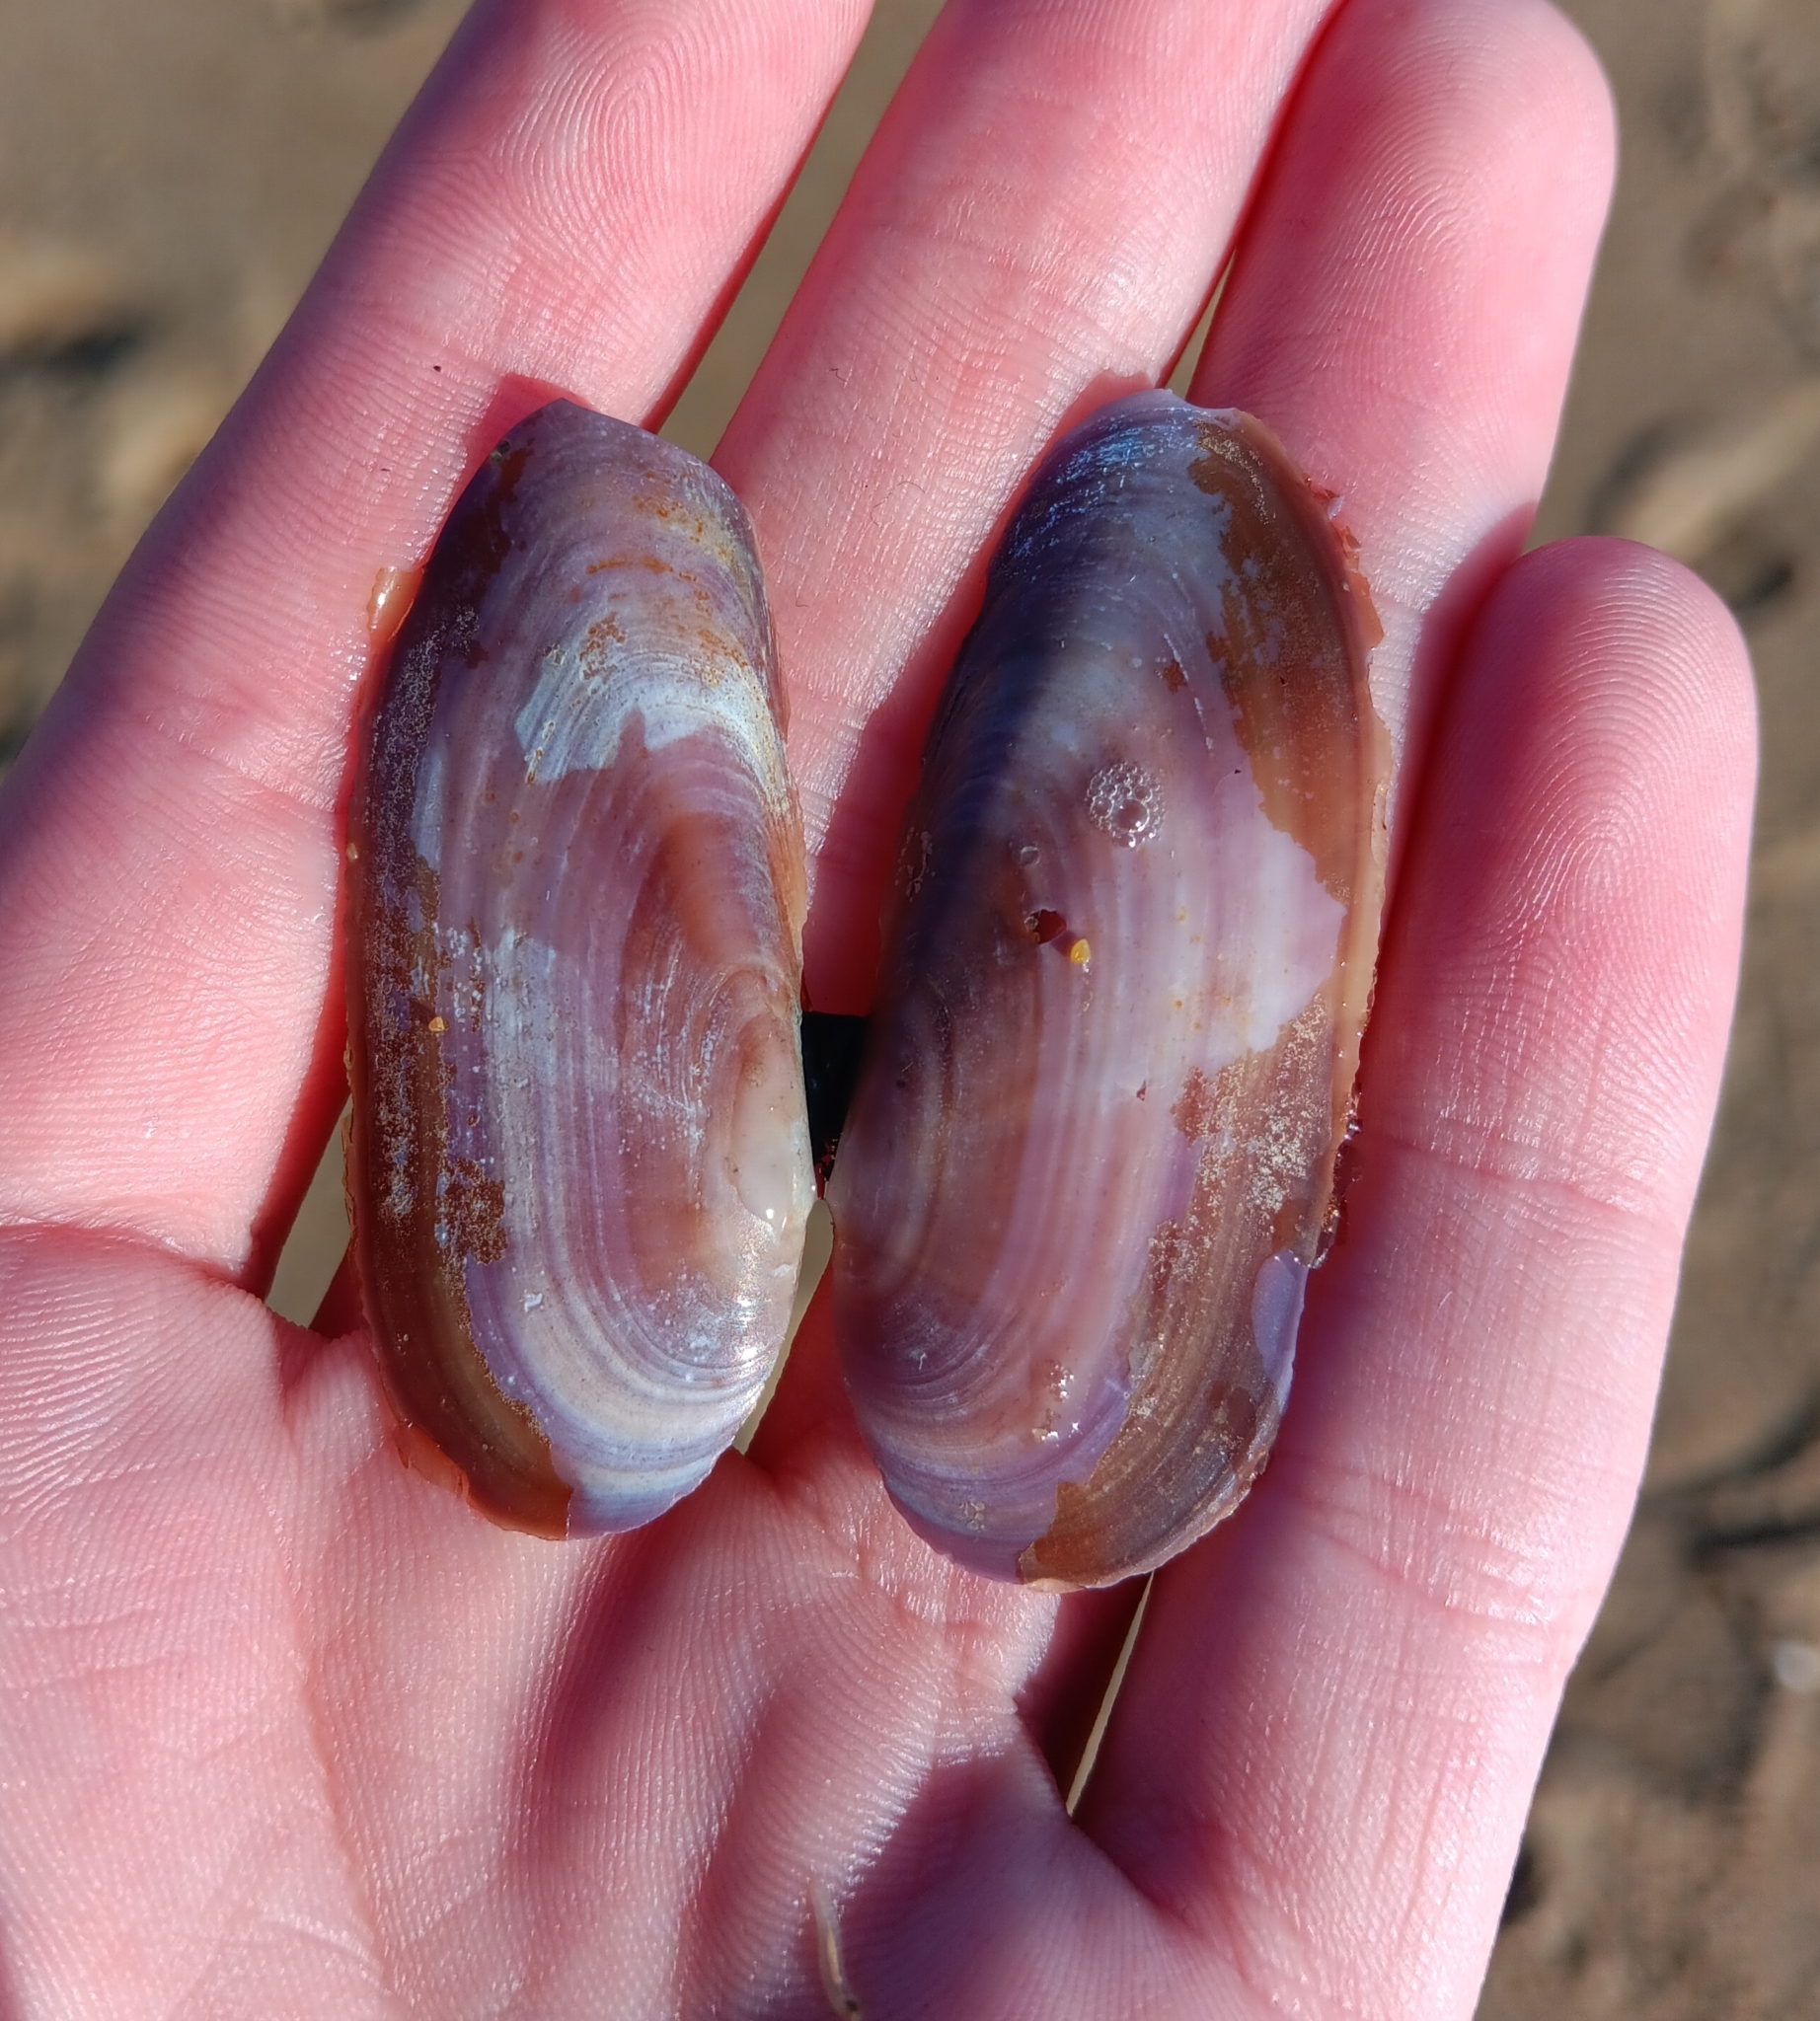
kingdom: Animalia
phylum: Mollusca
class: Bivalvia
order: Adapedonta
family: Pharidae
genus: Siliqua
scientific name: Siliqua costata
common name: Atlantic razor
